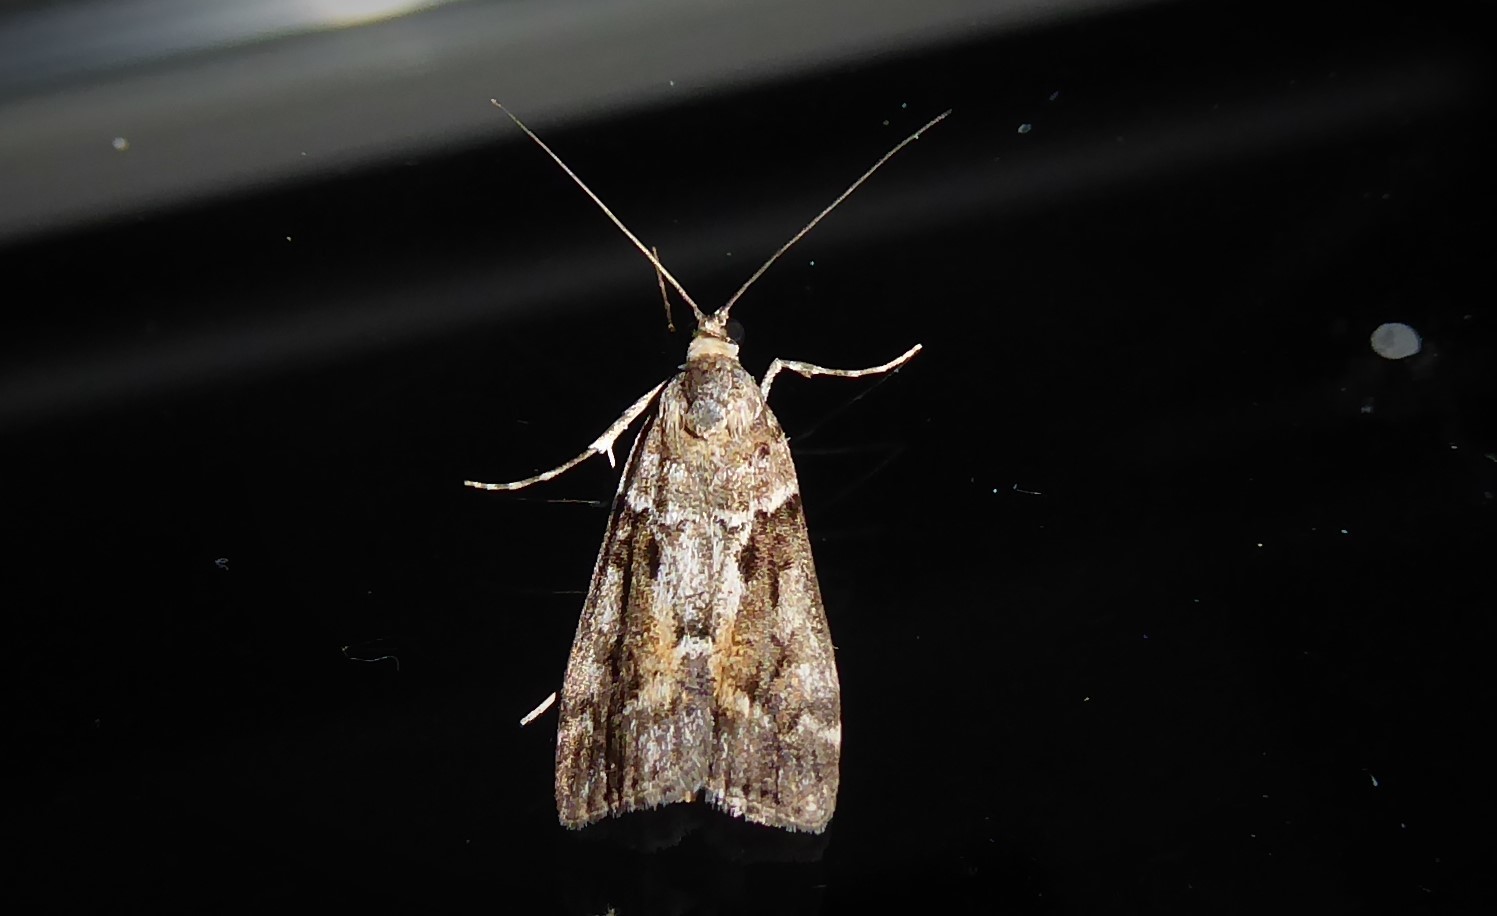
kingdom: Animalia
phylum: Arthropoda
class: Insecta
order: Lepidoptera
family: Crambidae
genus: Eudonia
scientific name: Eudonia submarginalis
